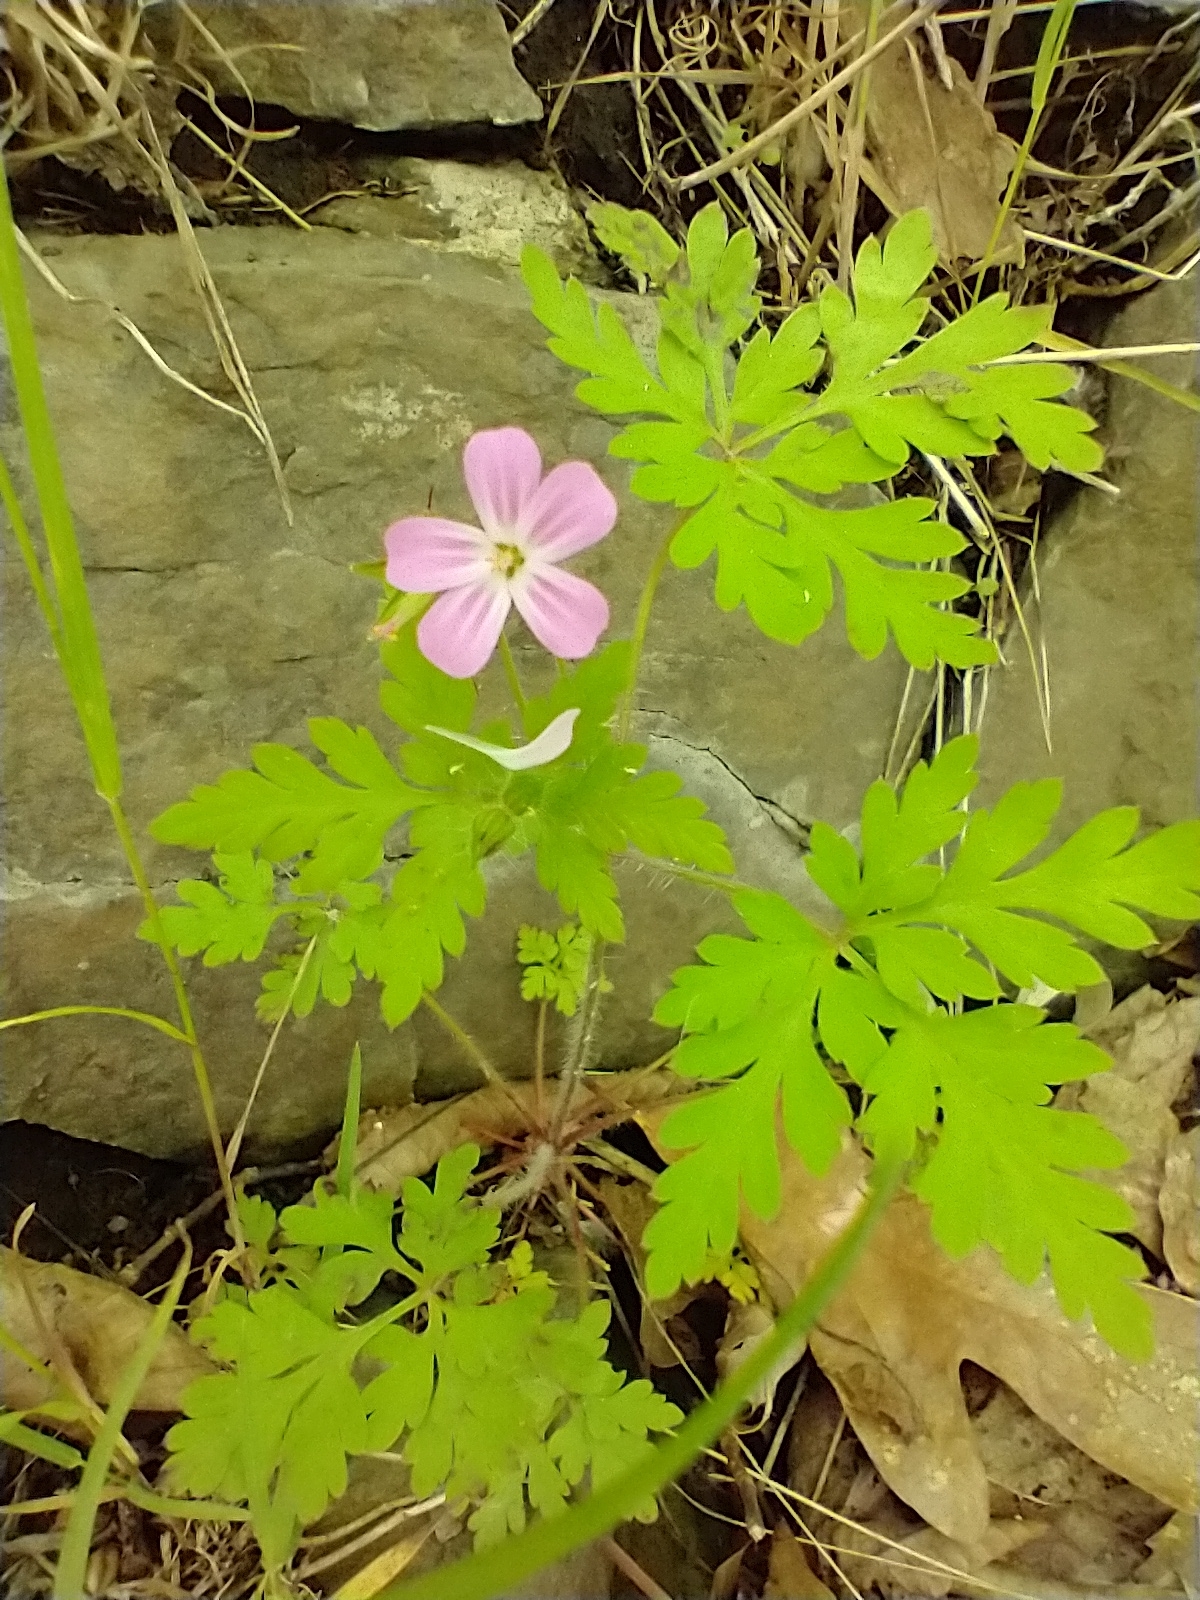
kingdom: Plantae
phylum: Tracheophyta
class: Magnoliopsida
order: Geraniales
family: Geraniaceae
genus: Geranium
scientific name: Geranium robertianum
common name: Herb-robert
